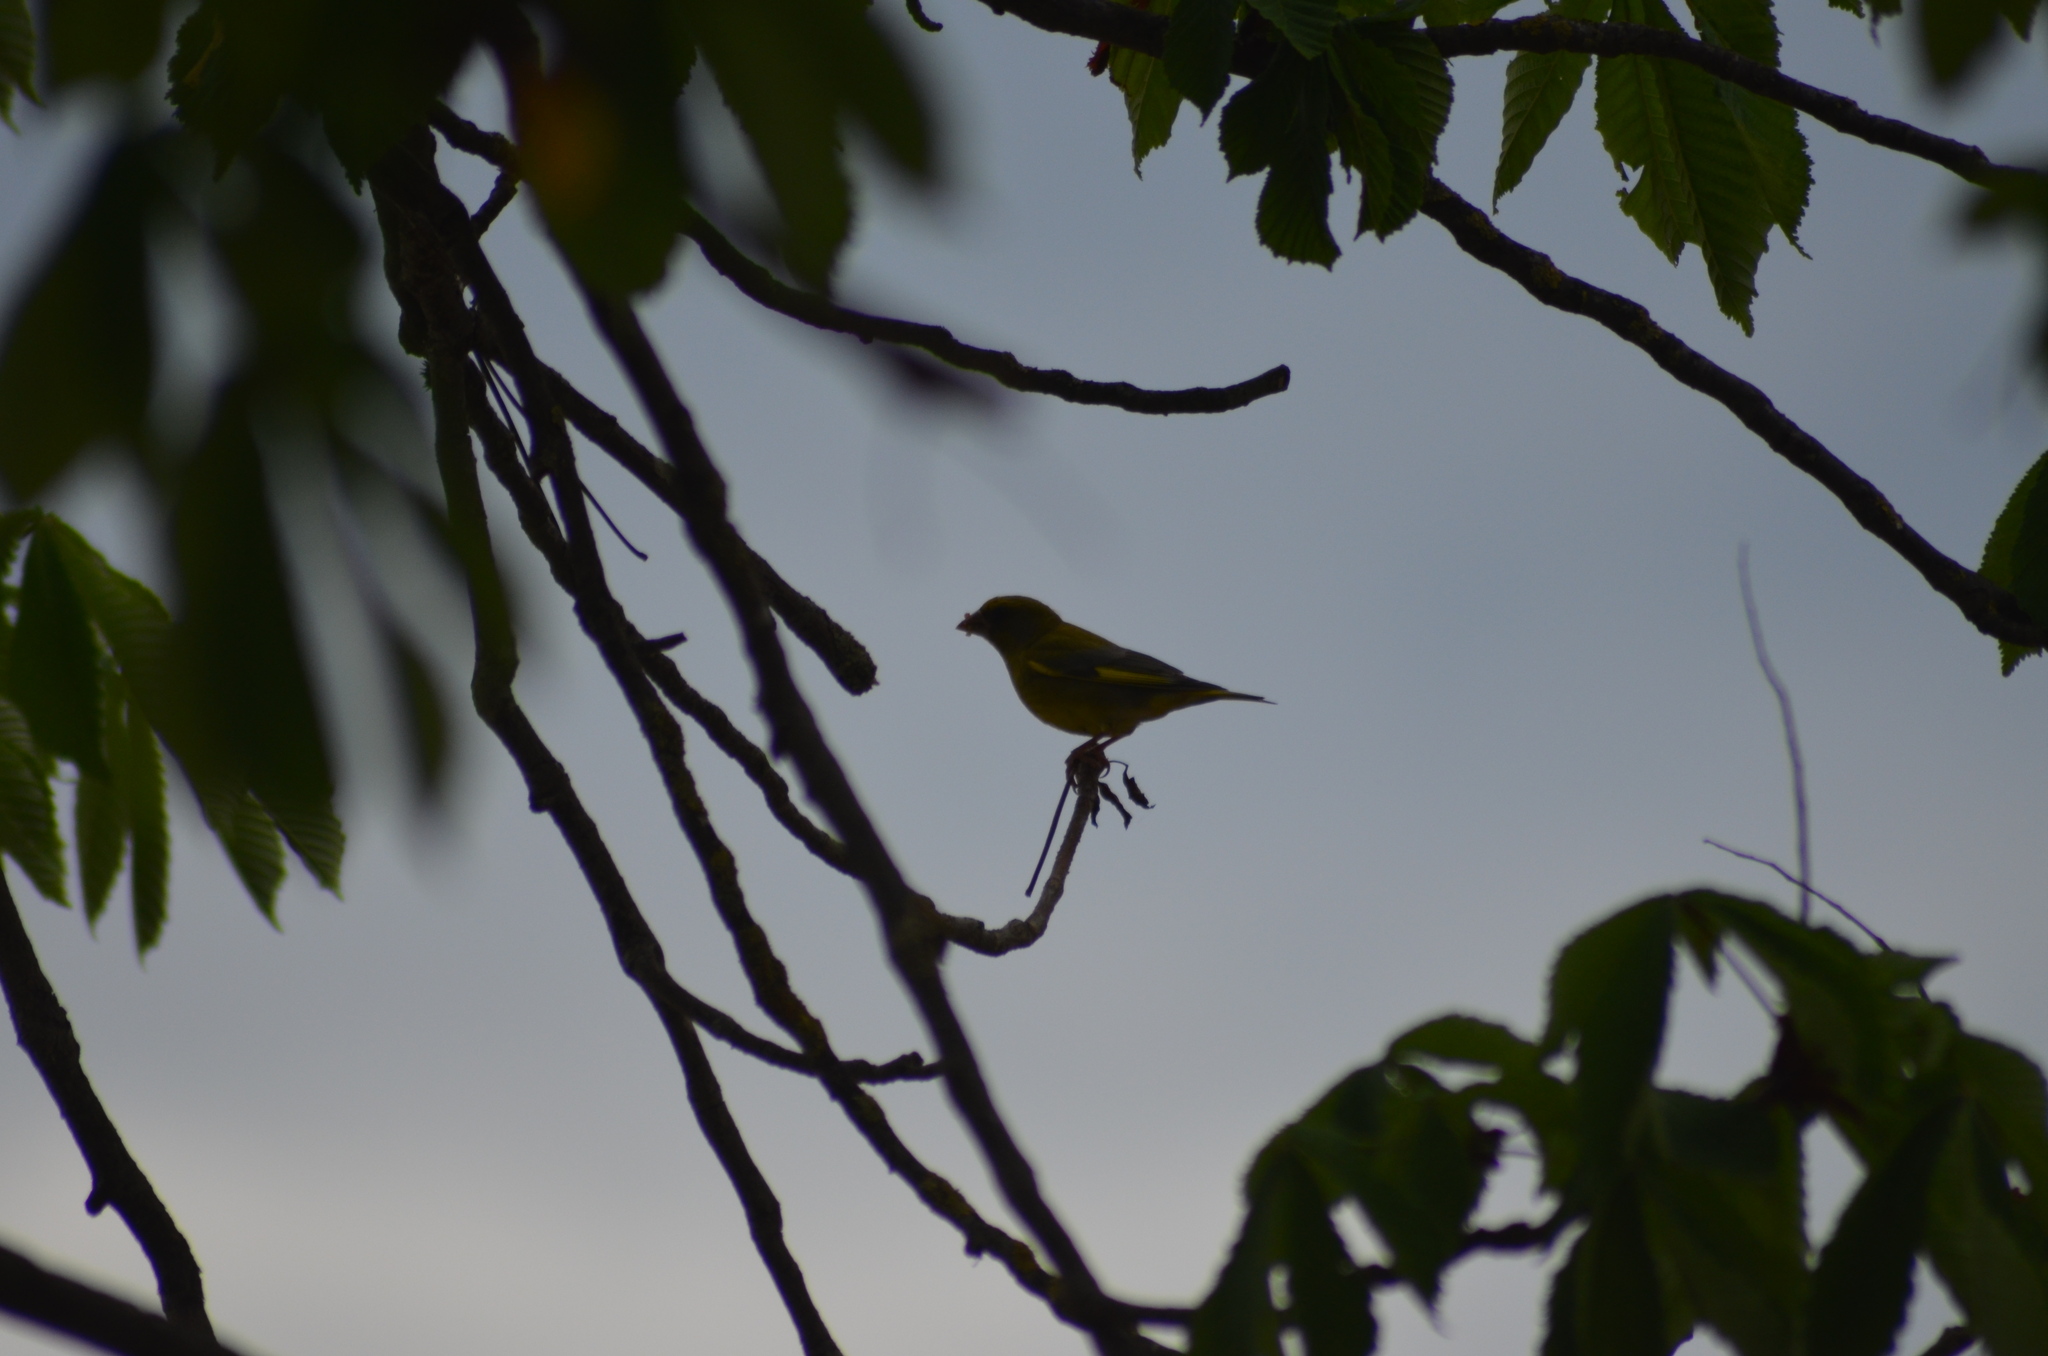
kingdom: Plantae
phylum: Tracheophyta
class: Liliopsida
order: Poales
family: Poaceae
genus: Chloris
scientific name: Chloris chloris
